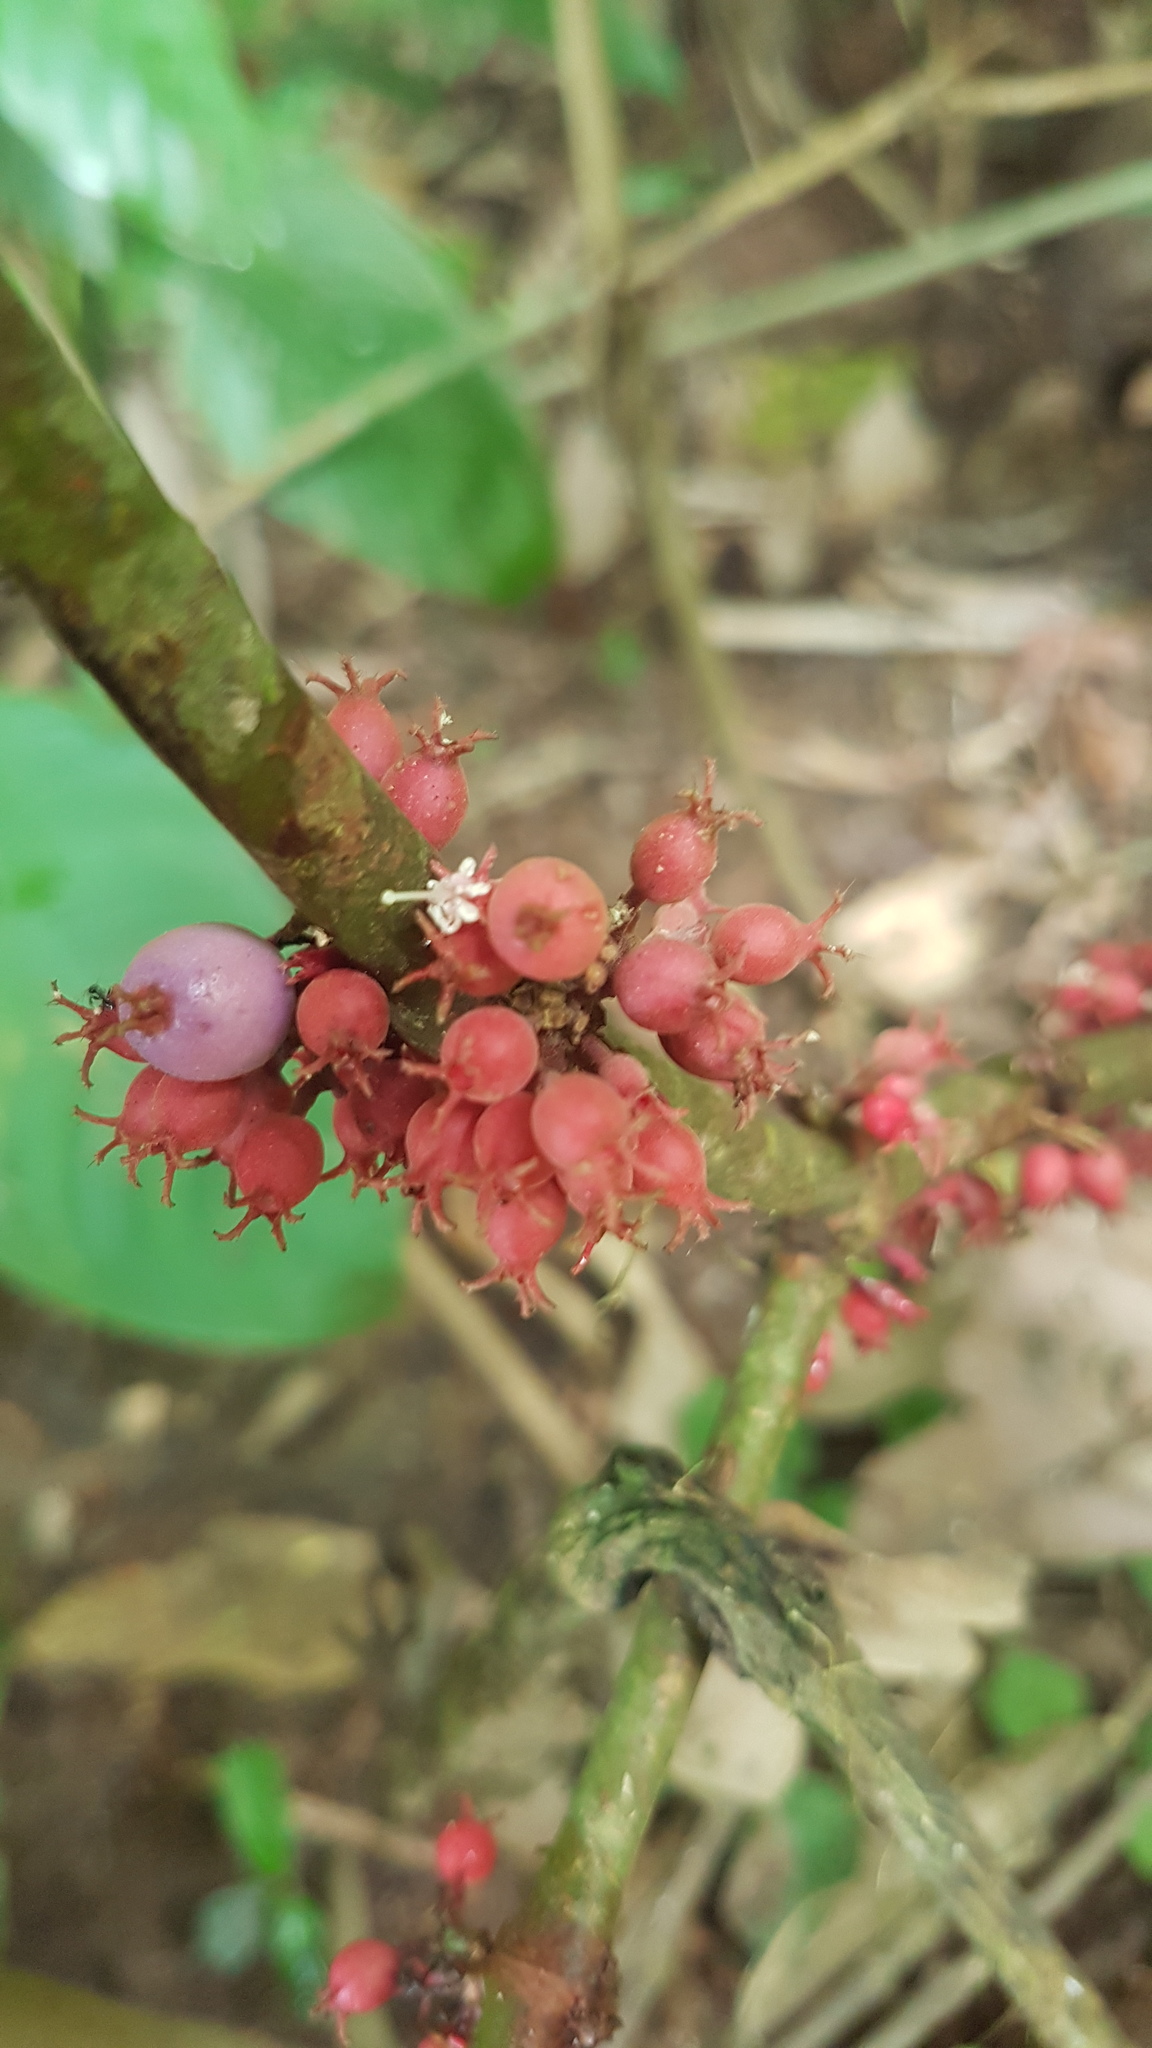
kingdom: Plantae
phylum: Tracheophyta
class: Magnoliopsida
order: Myrtales
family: Melastomataceae
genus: Miconia
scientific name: Miconia trichocalyx
